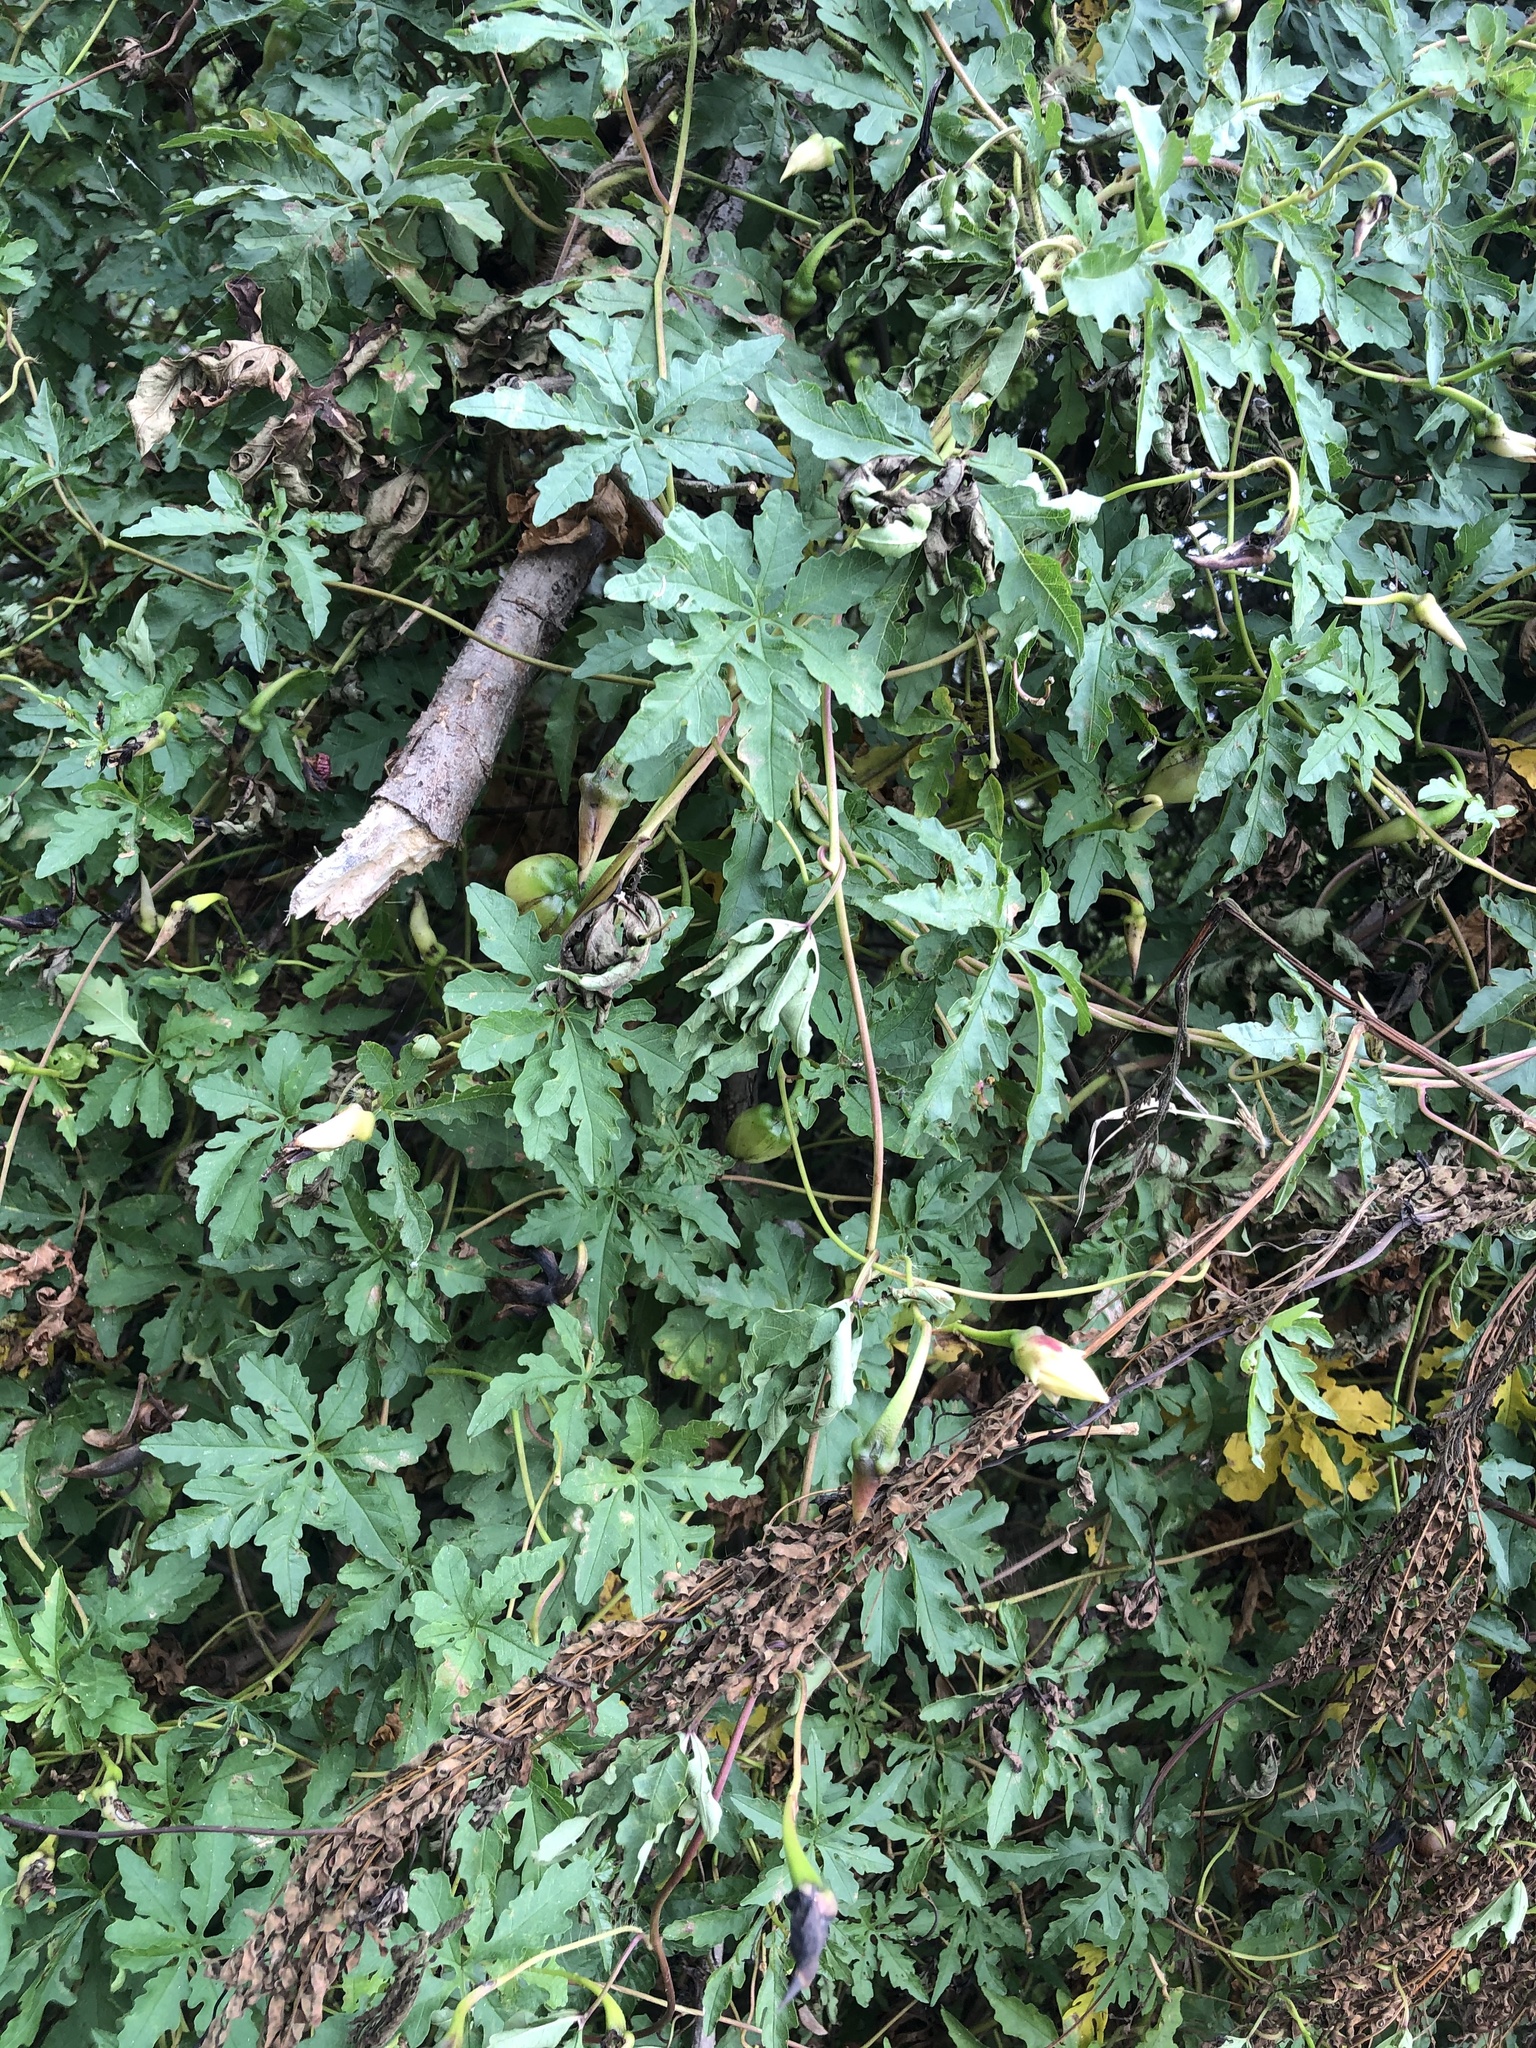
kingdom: Plantae
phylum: Tracheophyta
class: Magnoliopsida
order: Solanales
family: Convolvulaceae
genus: Distimake
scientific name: Distimake dissectus
